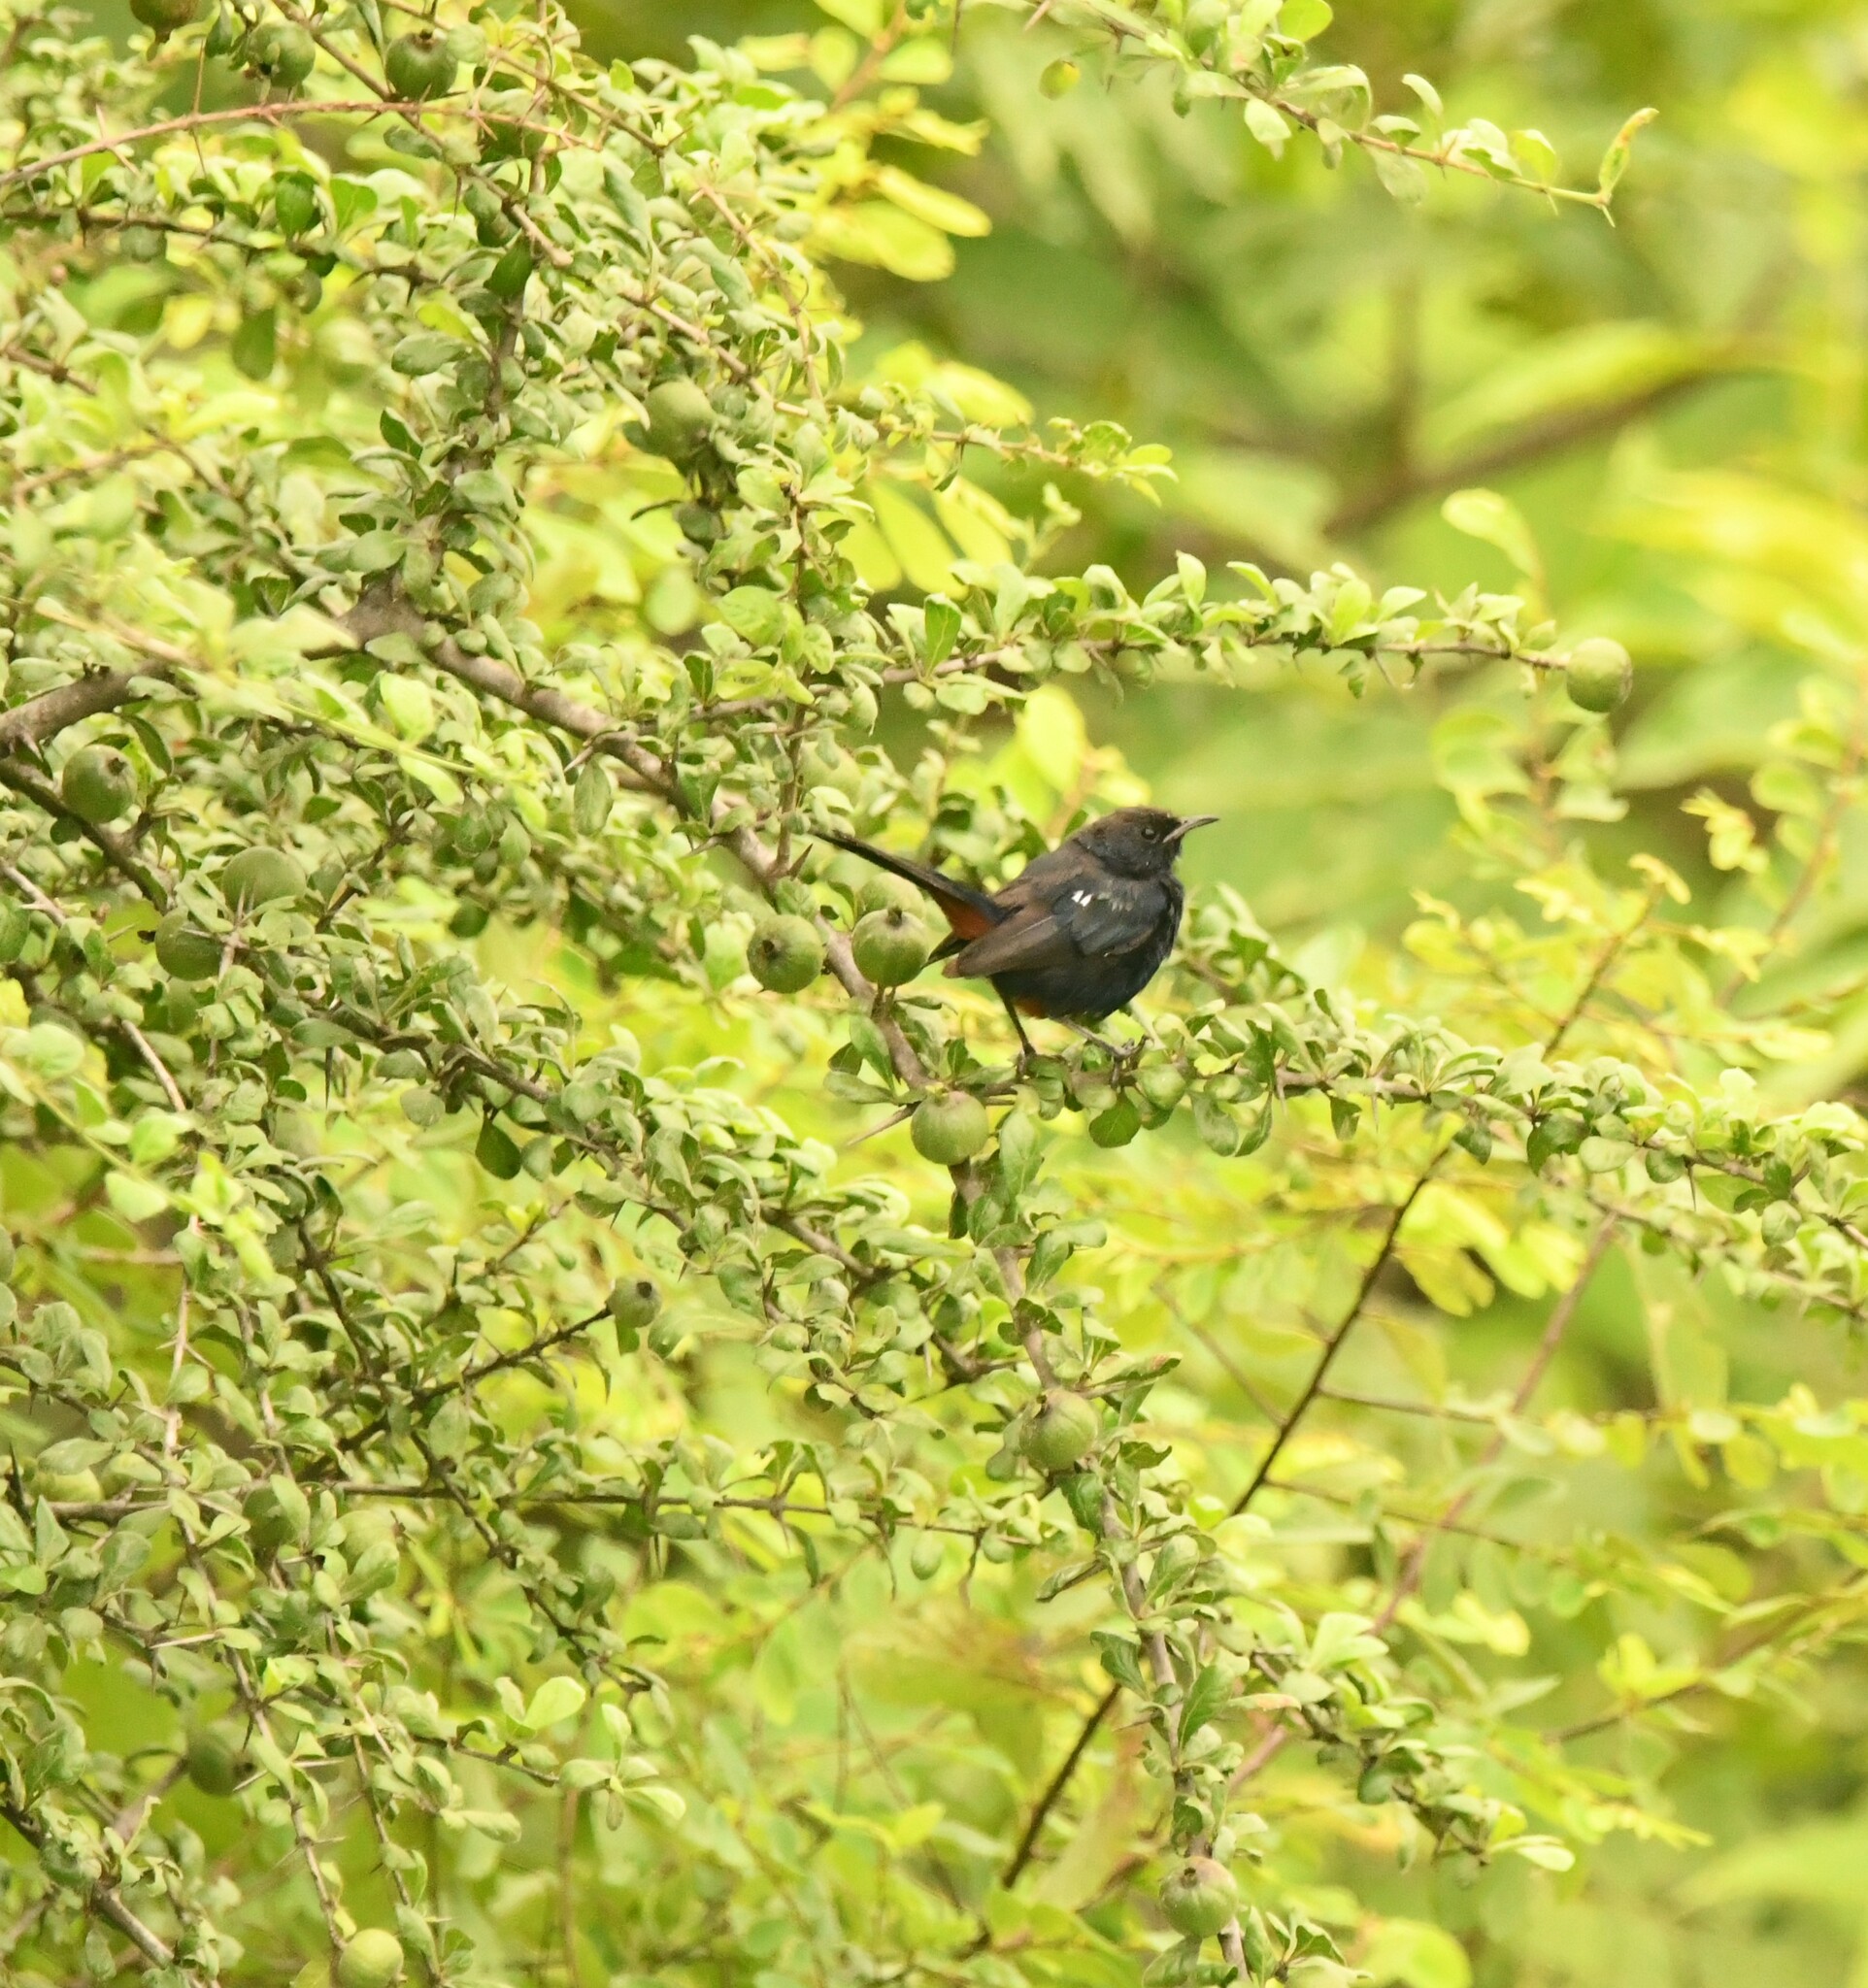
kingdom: Animalia
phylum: Chordata
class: Aves
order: Passeriformes
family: Muscicapidae
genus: Saxicoloides
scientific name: Saxicoloides fulicatus
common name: Indian robin
